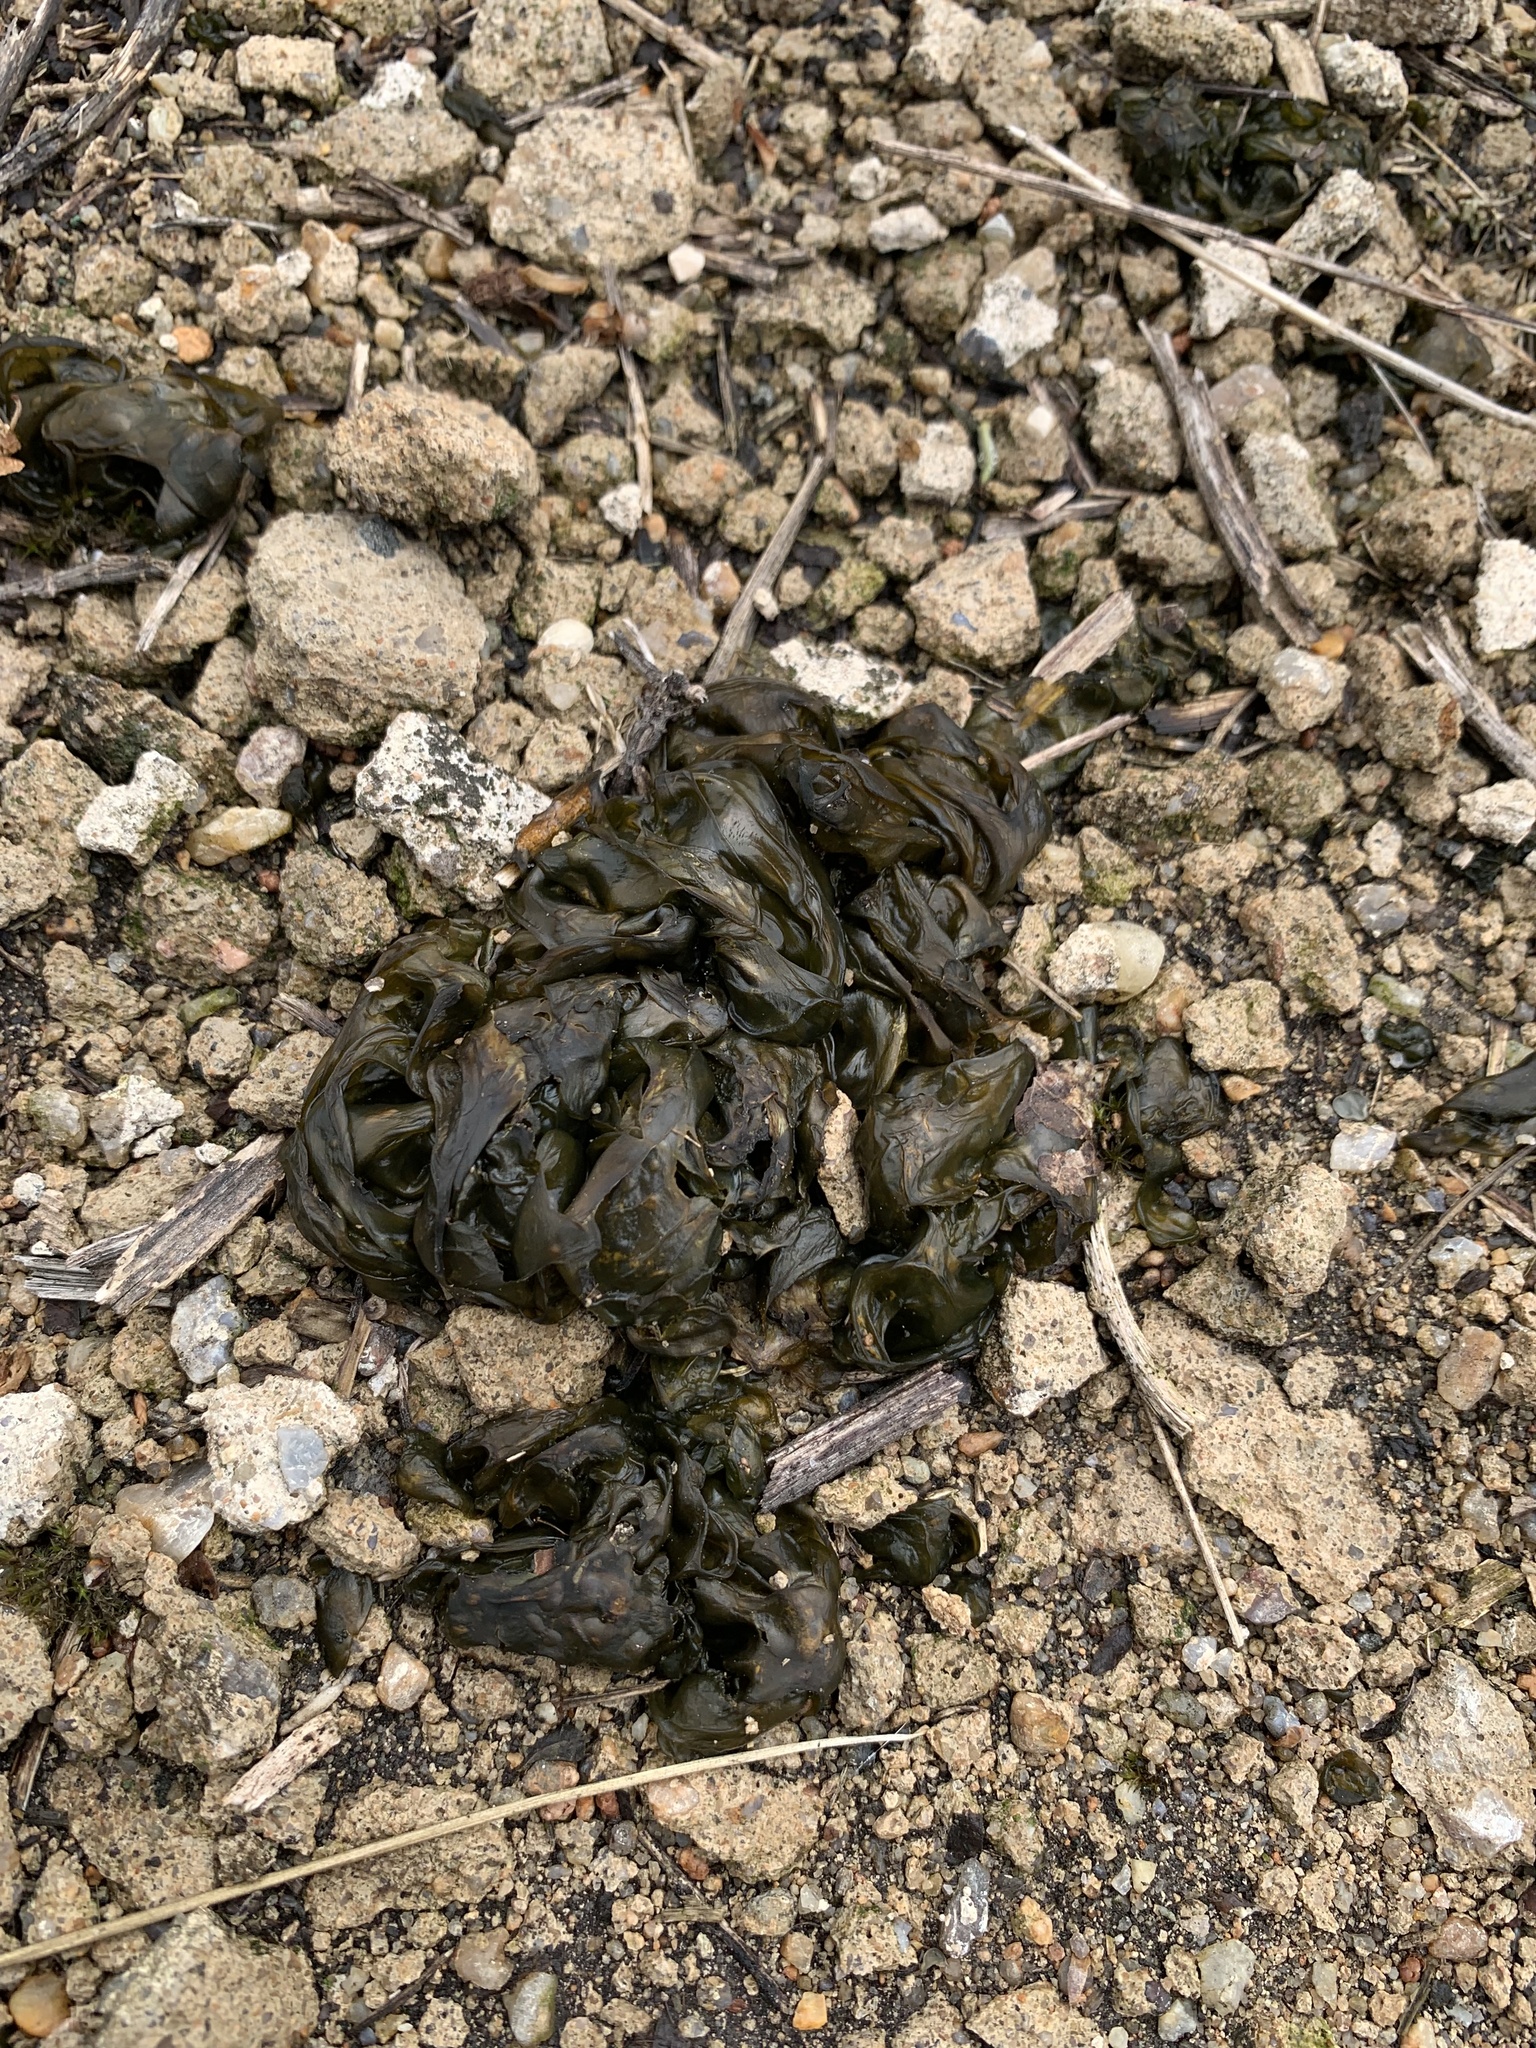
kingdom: Bacteria
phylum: Cyanobacteria
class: Cyanobacteriia
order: Cyanobacteriales
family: Nostocaceae
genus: Nostoc
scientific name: Nostoc commune
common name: Star jelly
